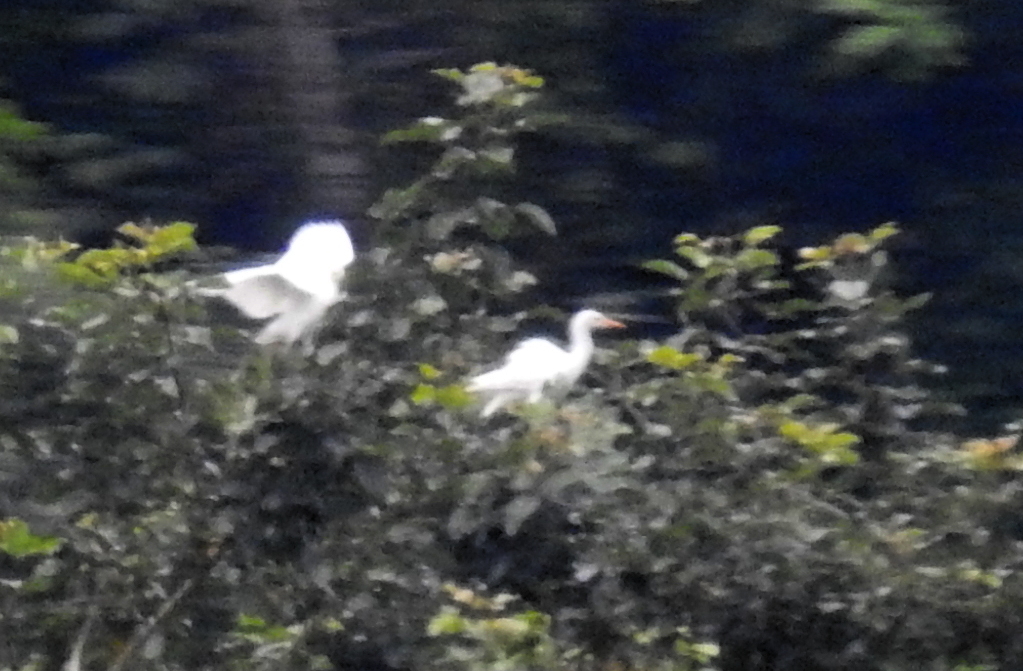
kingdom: Animalia
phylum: Chordata
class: Aves
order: Pelecaniformes
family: Ardeidae
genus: Bubulcus
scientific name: Bubulcus ibis
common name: Cattle egret
